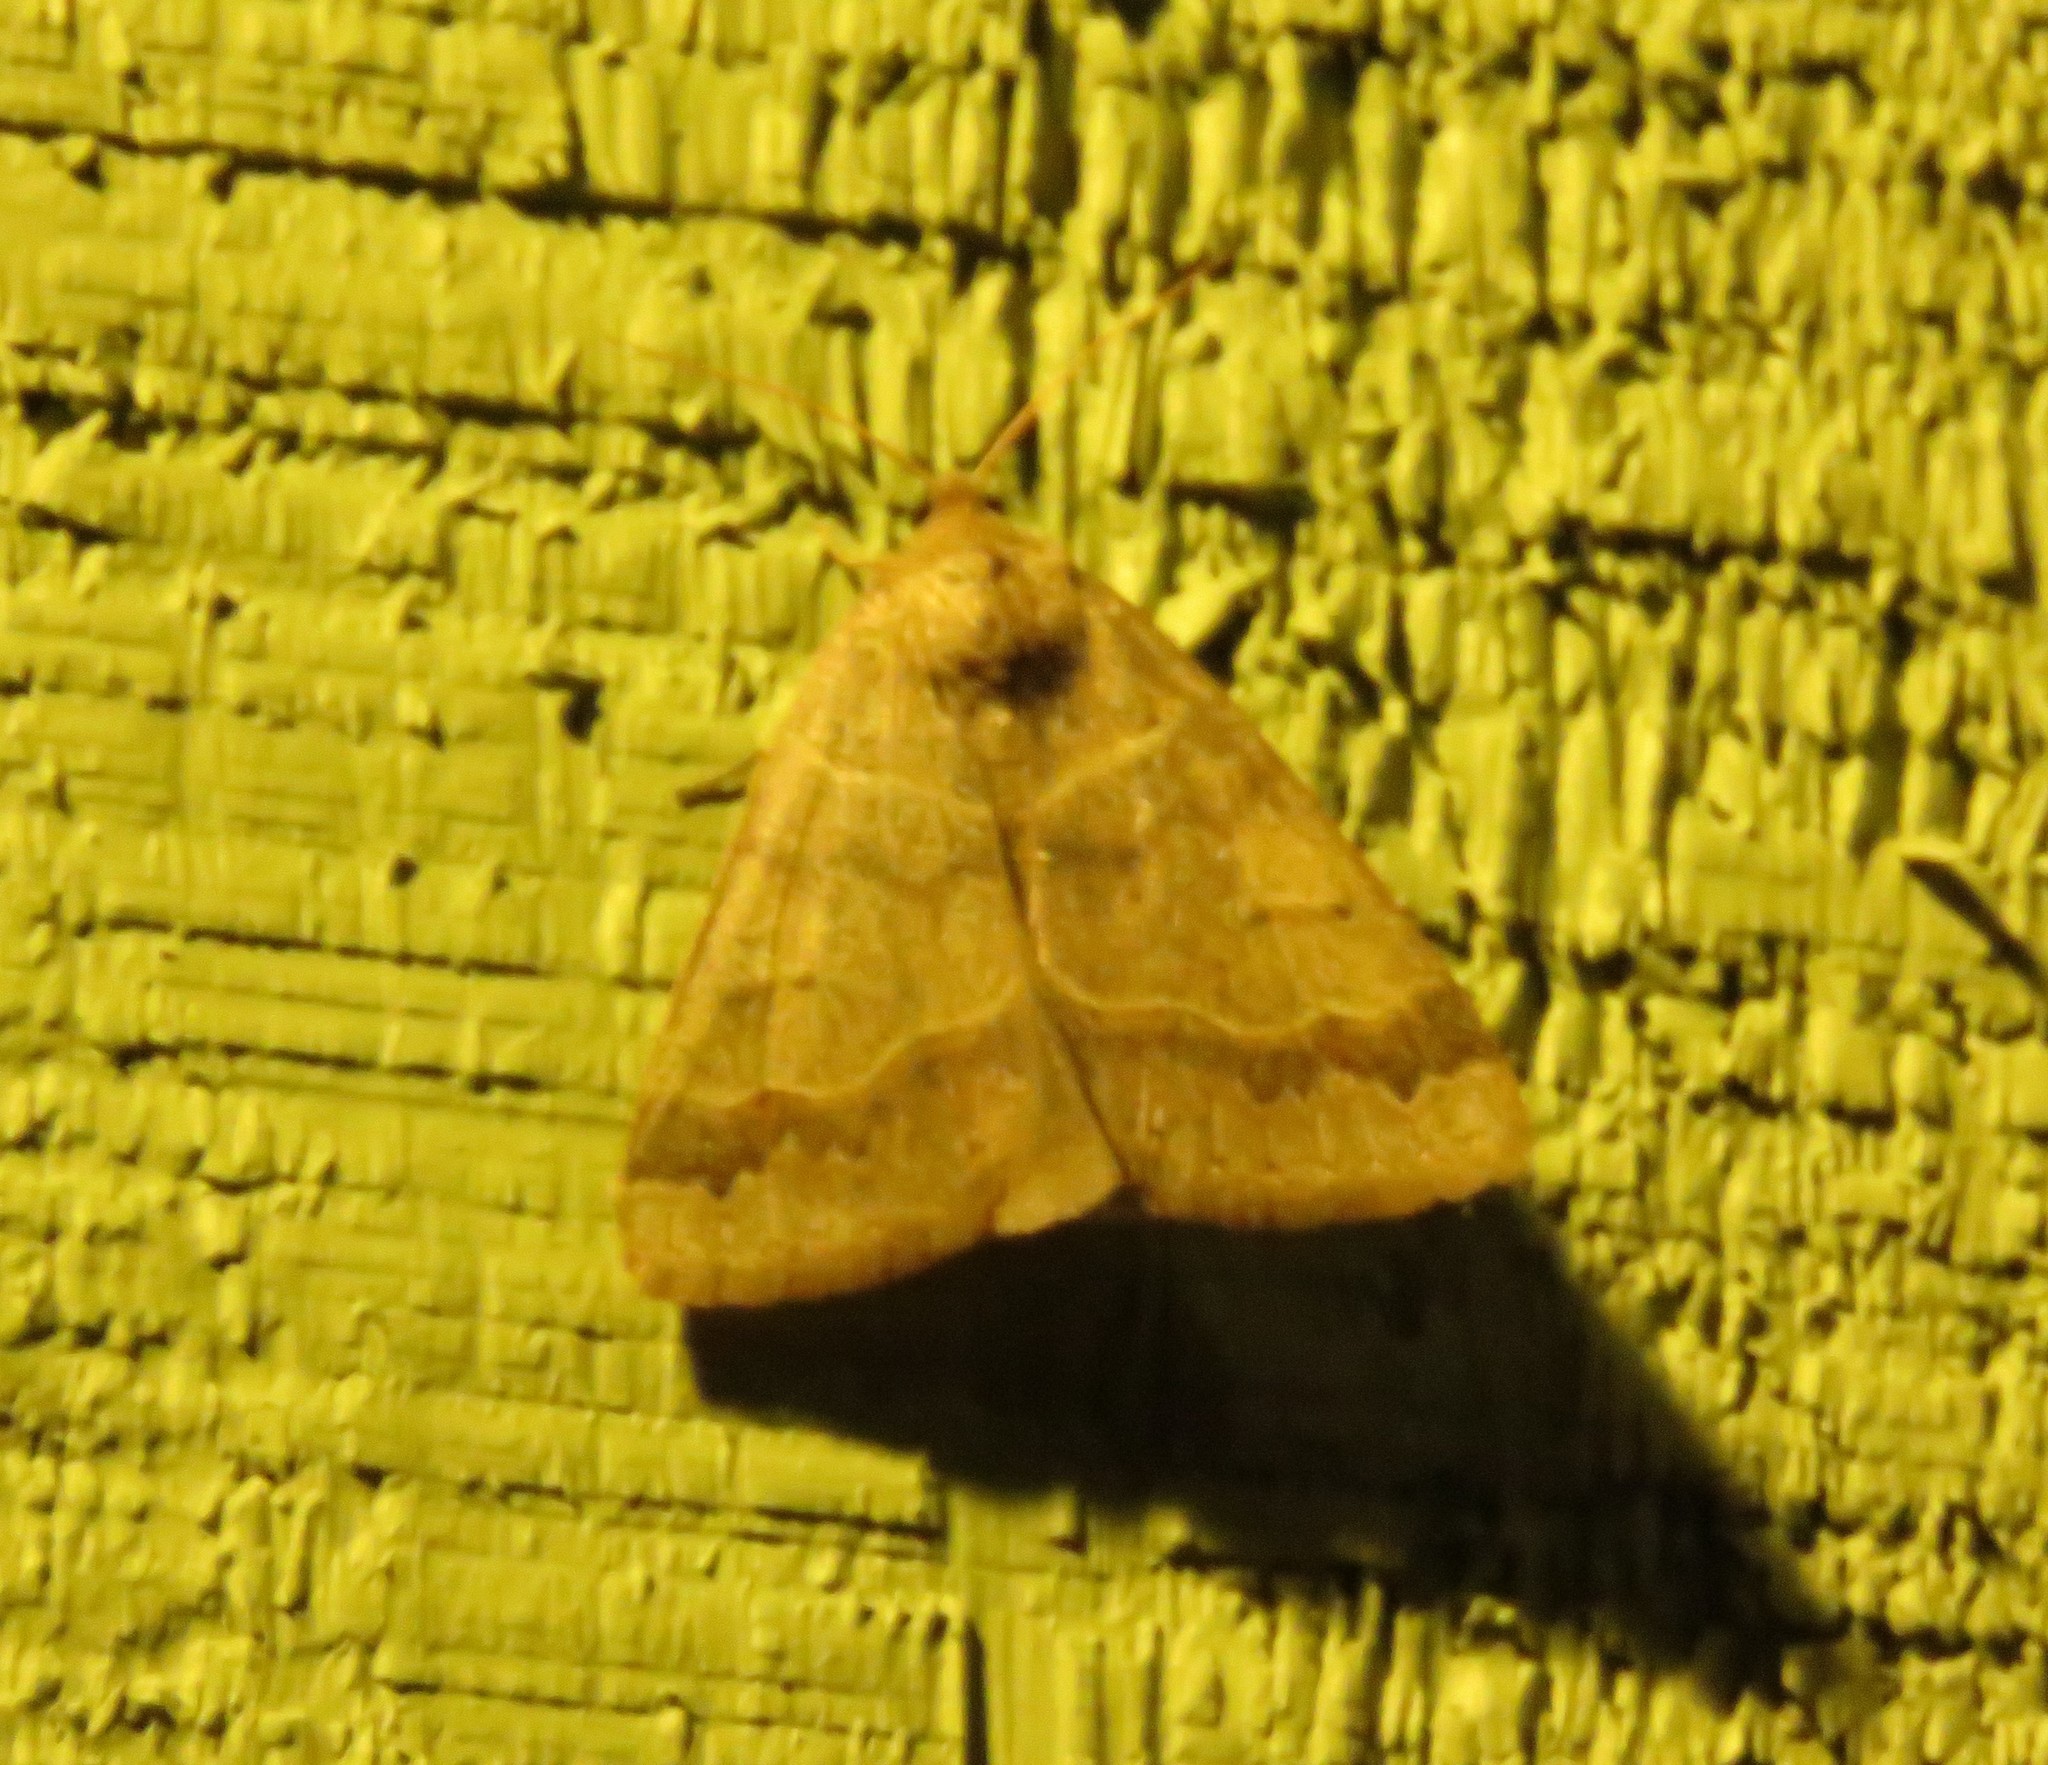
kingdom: Animalia
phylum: Arthropoda
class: Insecta
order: Lepidoptera
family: Erebidae
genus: Phoberia
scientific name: Phoberia atomaris
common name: Common oak moth
